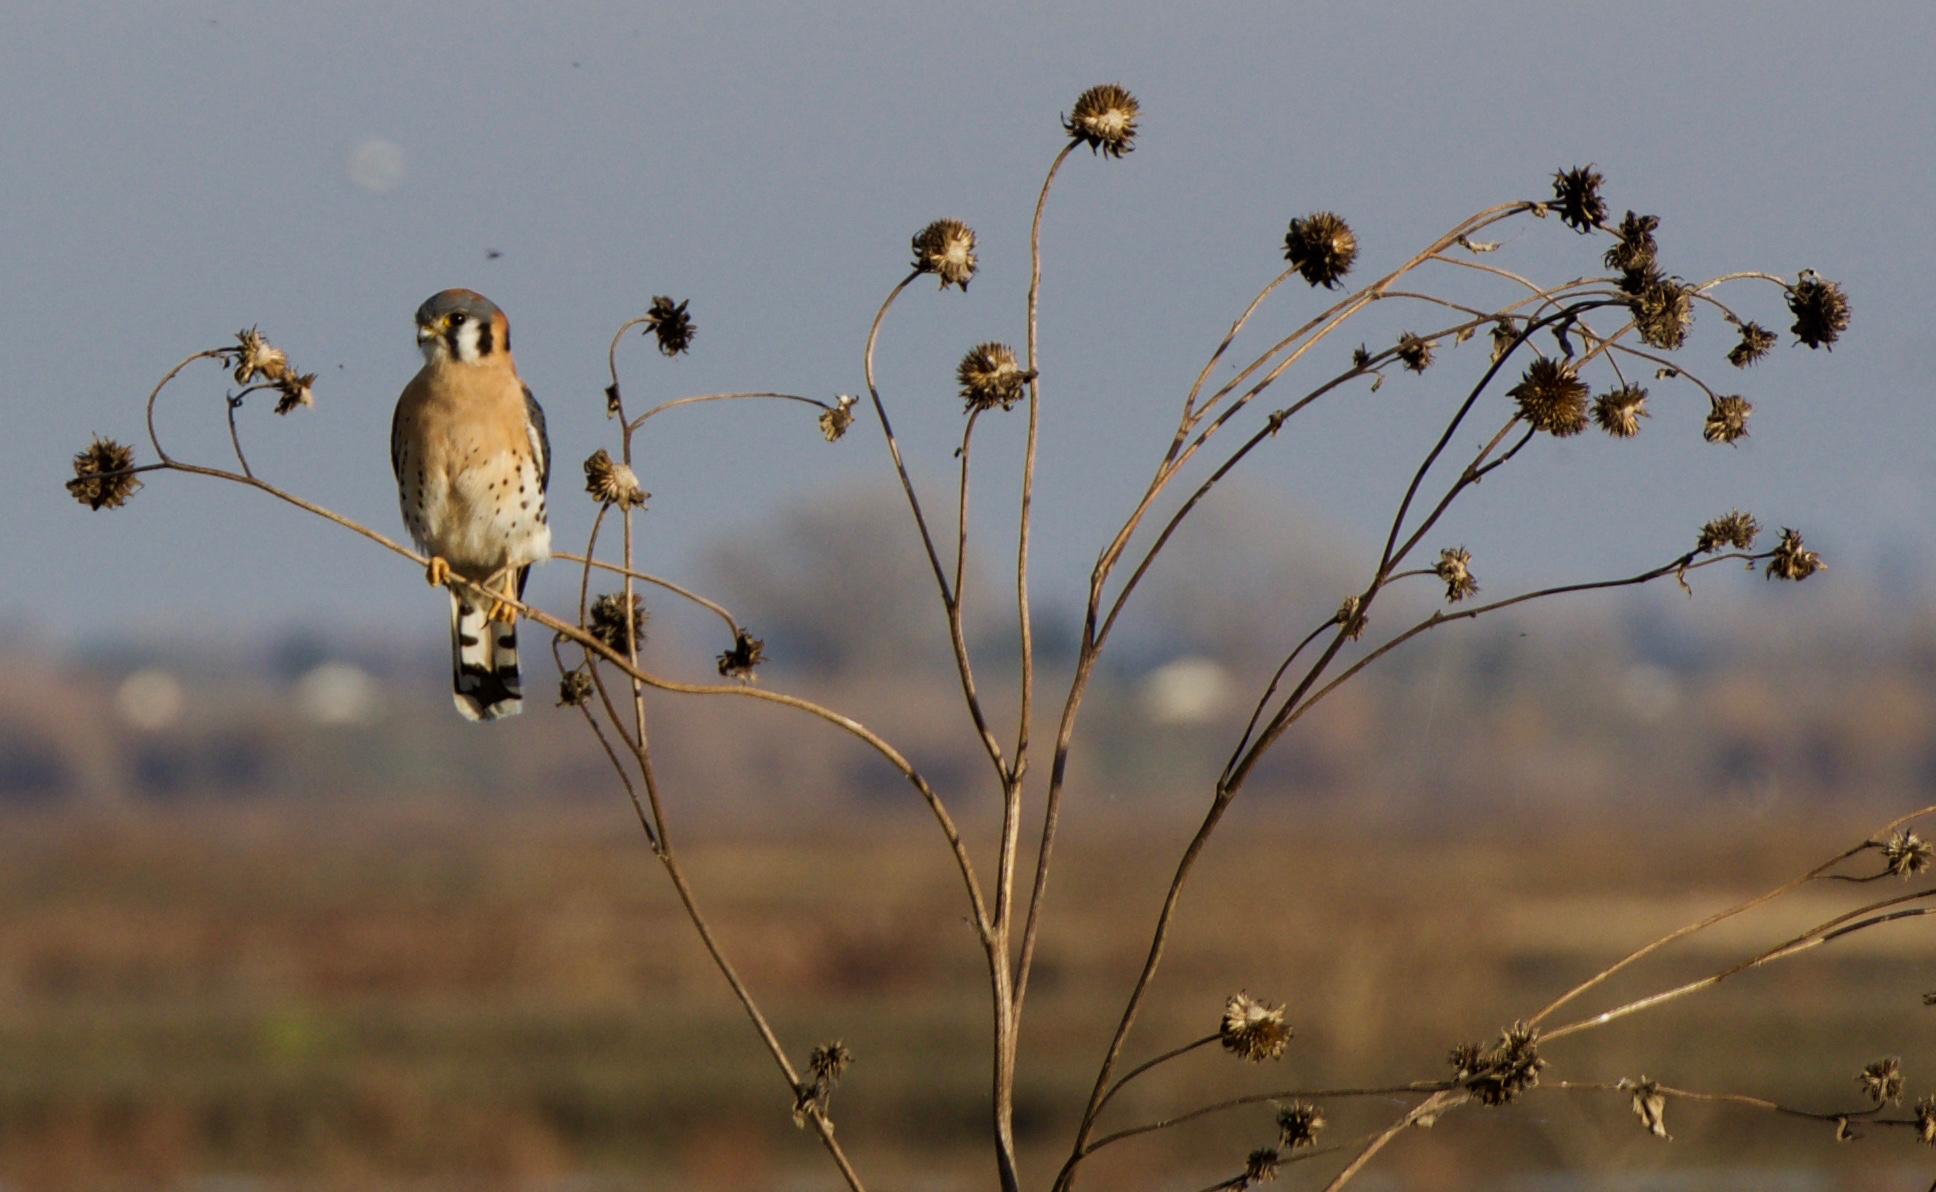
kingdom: Animalia
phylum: Chordata
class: Aves
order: Falconiformes
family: Falconidae
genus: Falco
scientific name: Falco sparverius
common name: American kestrel
